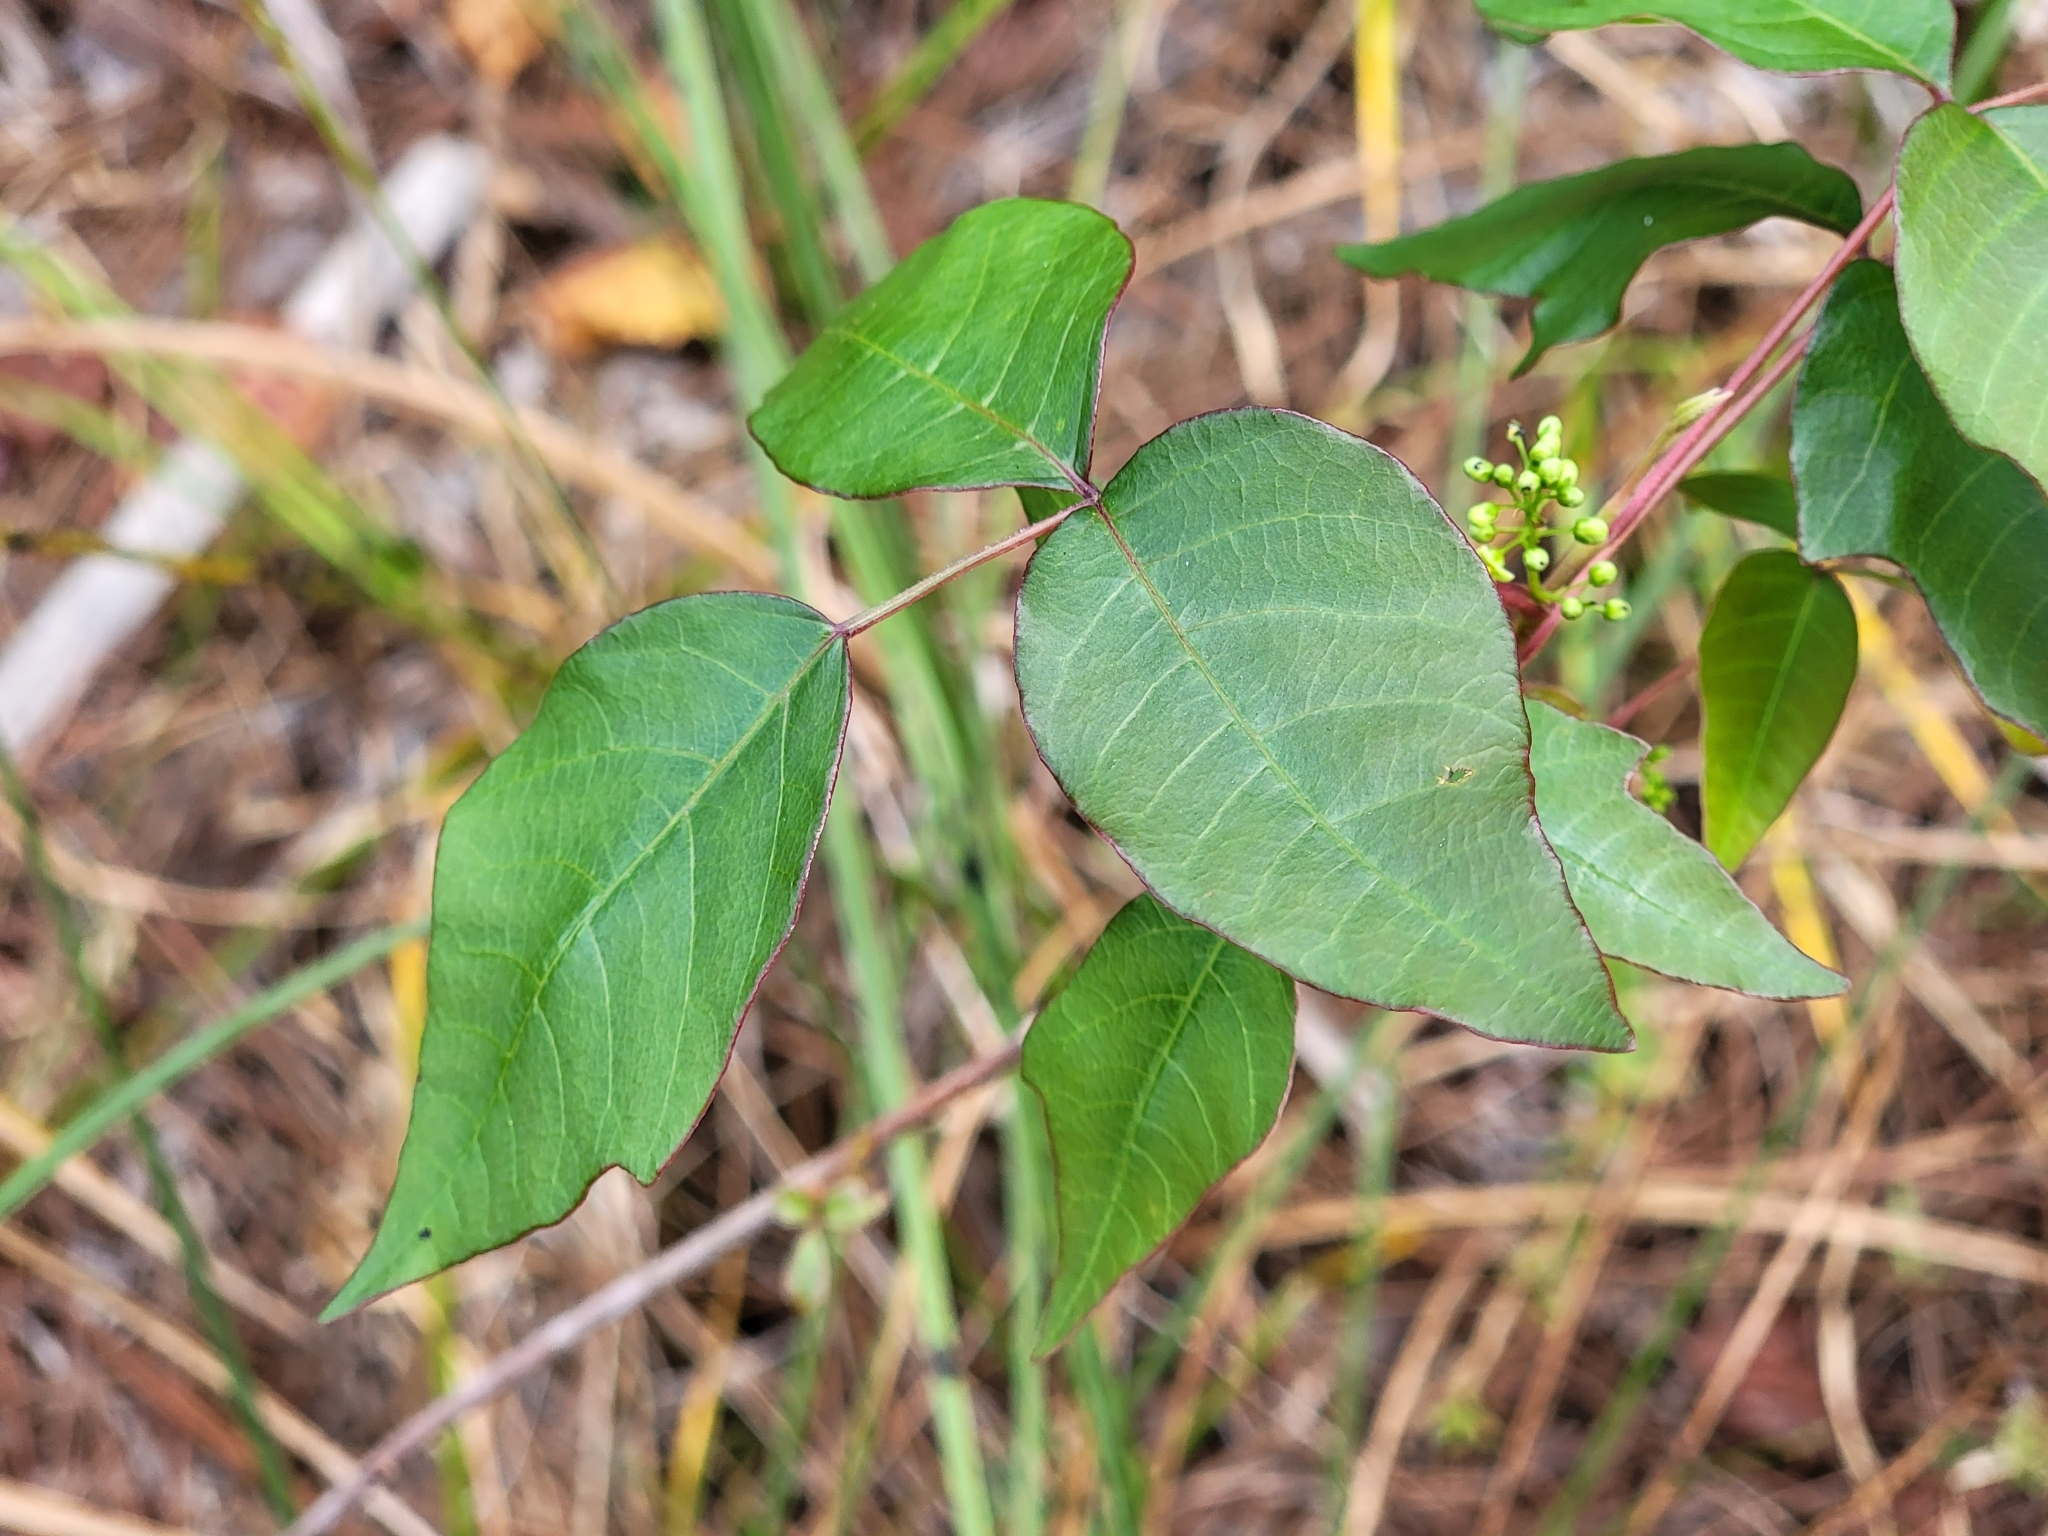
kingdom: Plantae
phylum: Tracheophyta
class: Magnoliopsida
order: Sapindales
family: Anacardiaceae
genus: Toxicodendron
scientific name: Toxicodendron radicans
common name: Poison ivy
